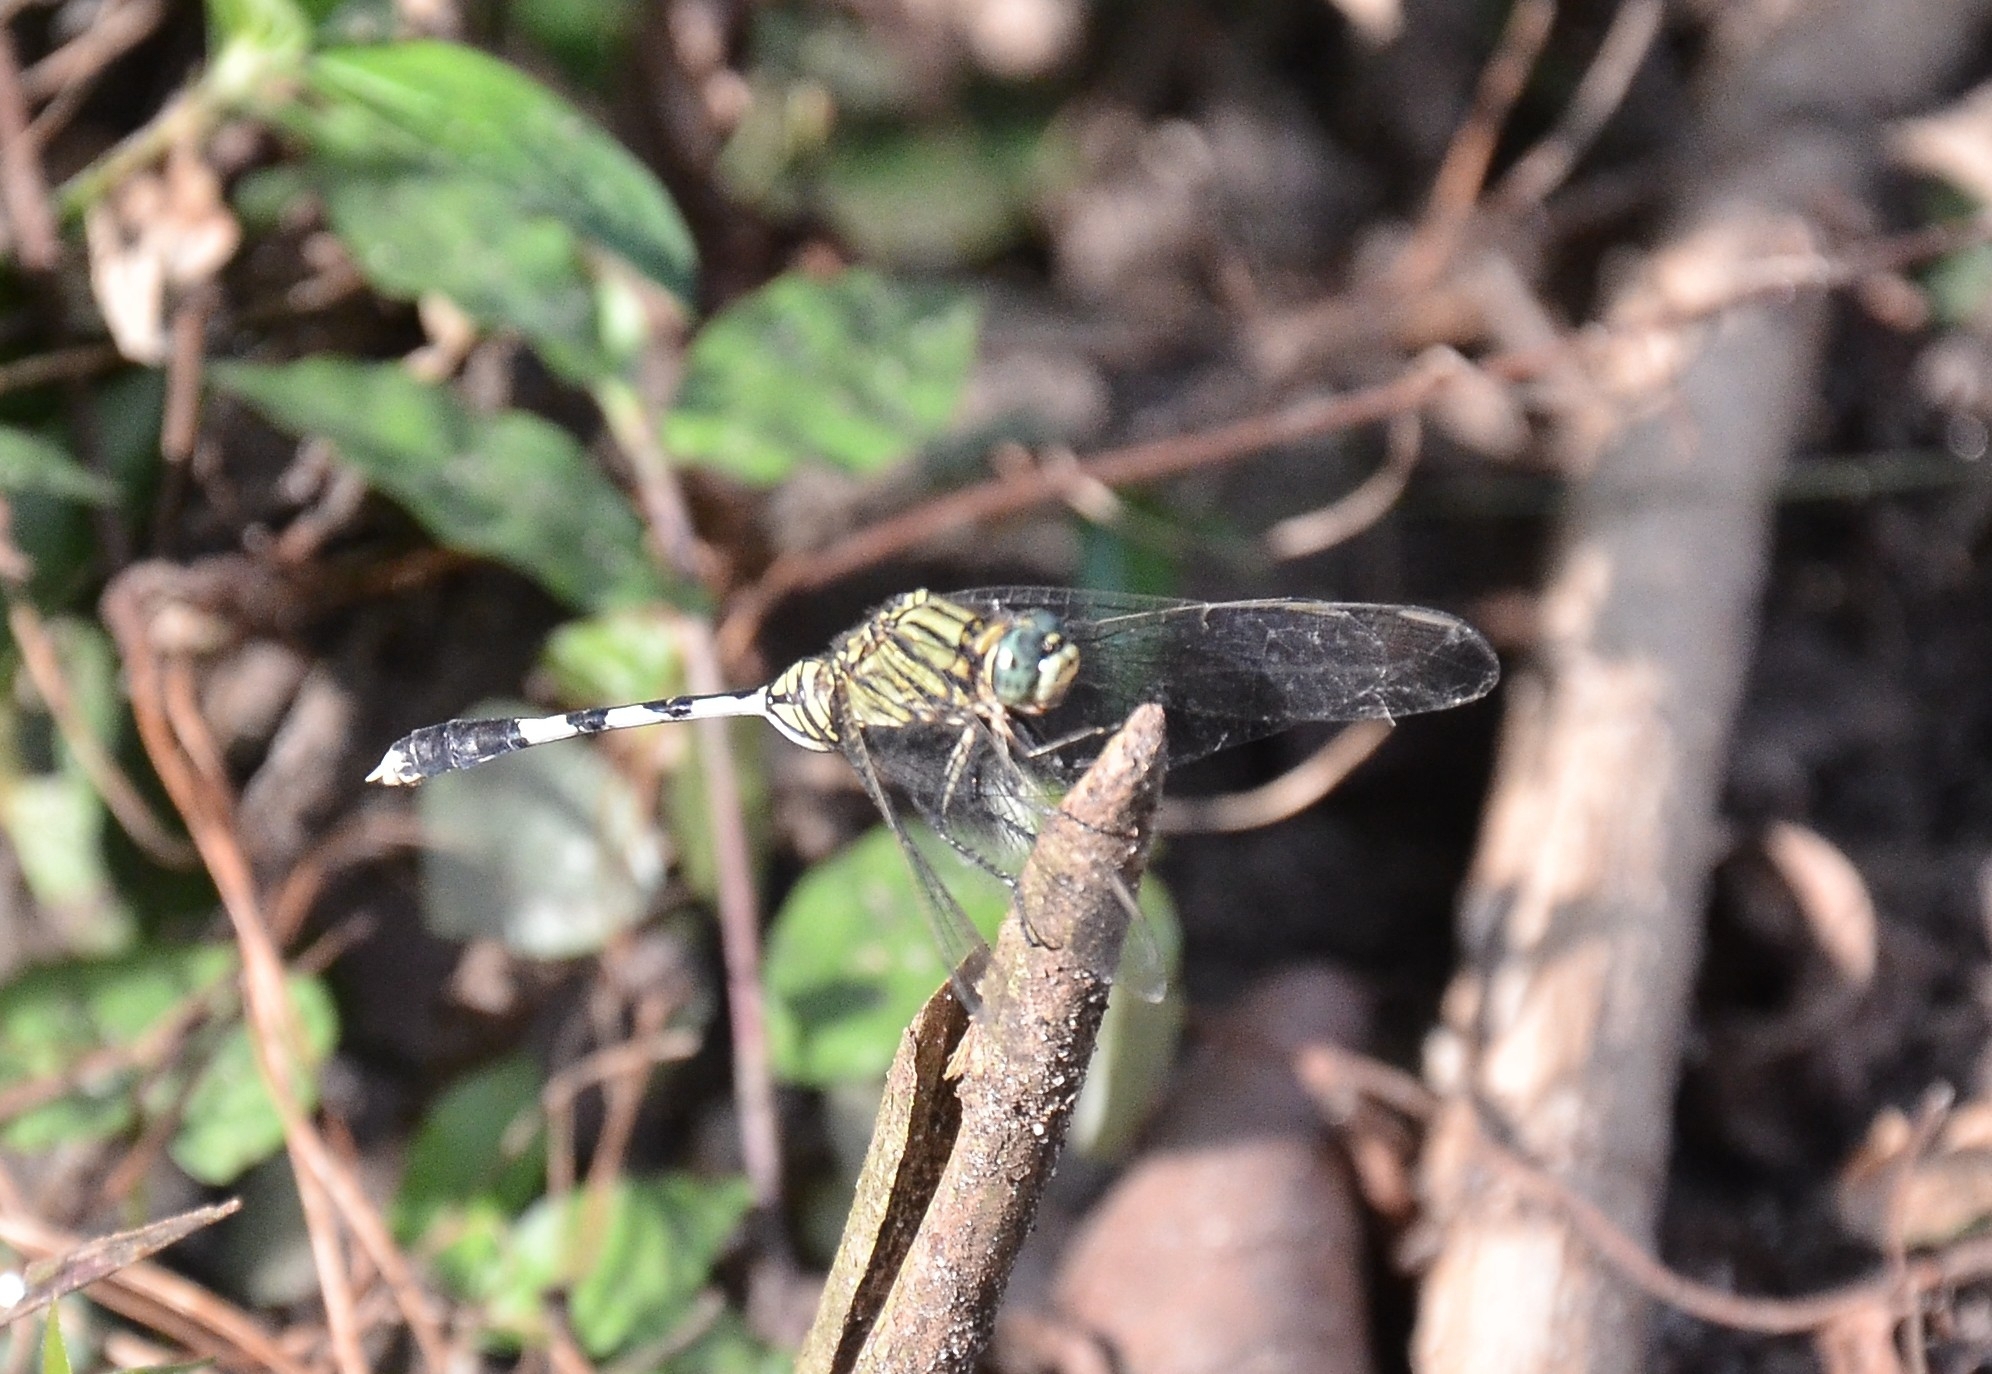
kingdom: Animalia
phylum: Arthropoda
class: Insecta
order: Odonata
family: Libellulidae
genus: Orthetrum
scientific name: Orthetrum sabina
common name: Slender skimmer
